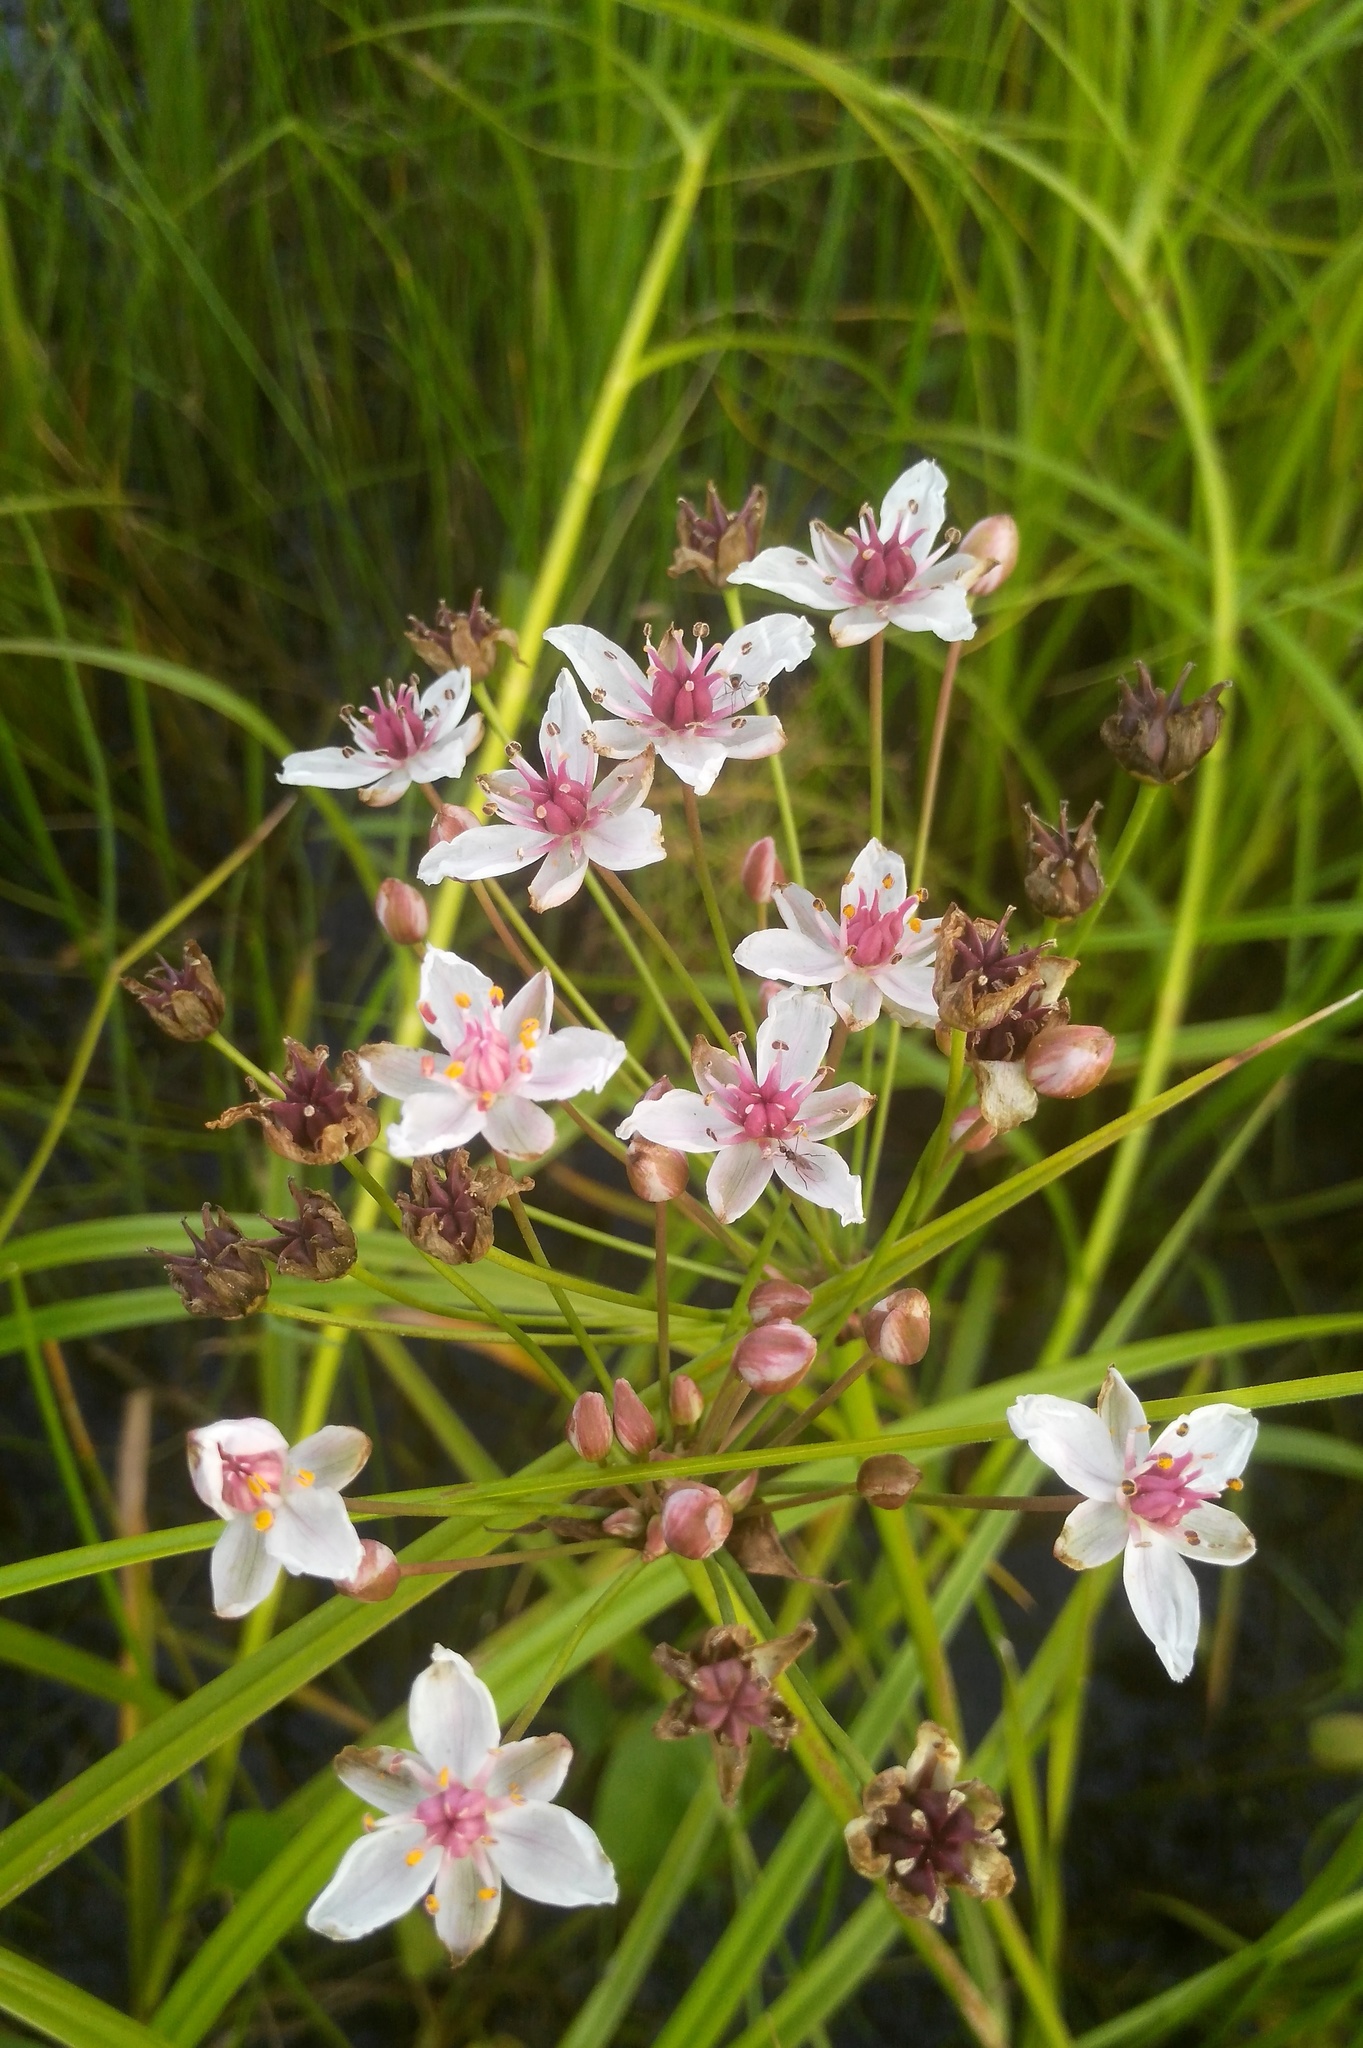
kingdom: Plantae
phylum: Tracheophyta
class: Liliopsida
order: Alismatales
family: Butomaceae
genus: Butomus
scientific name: Butomus umbellatus
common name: Flowering-rush
